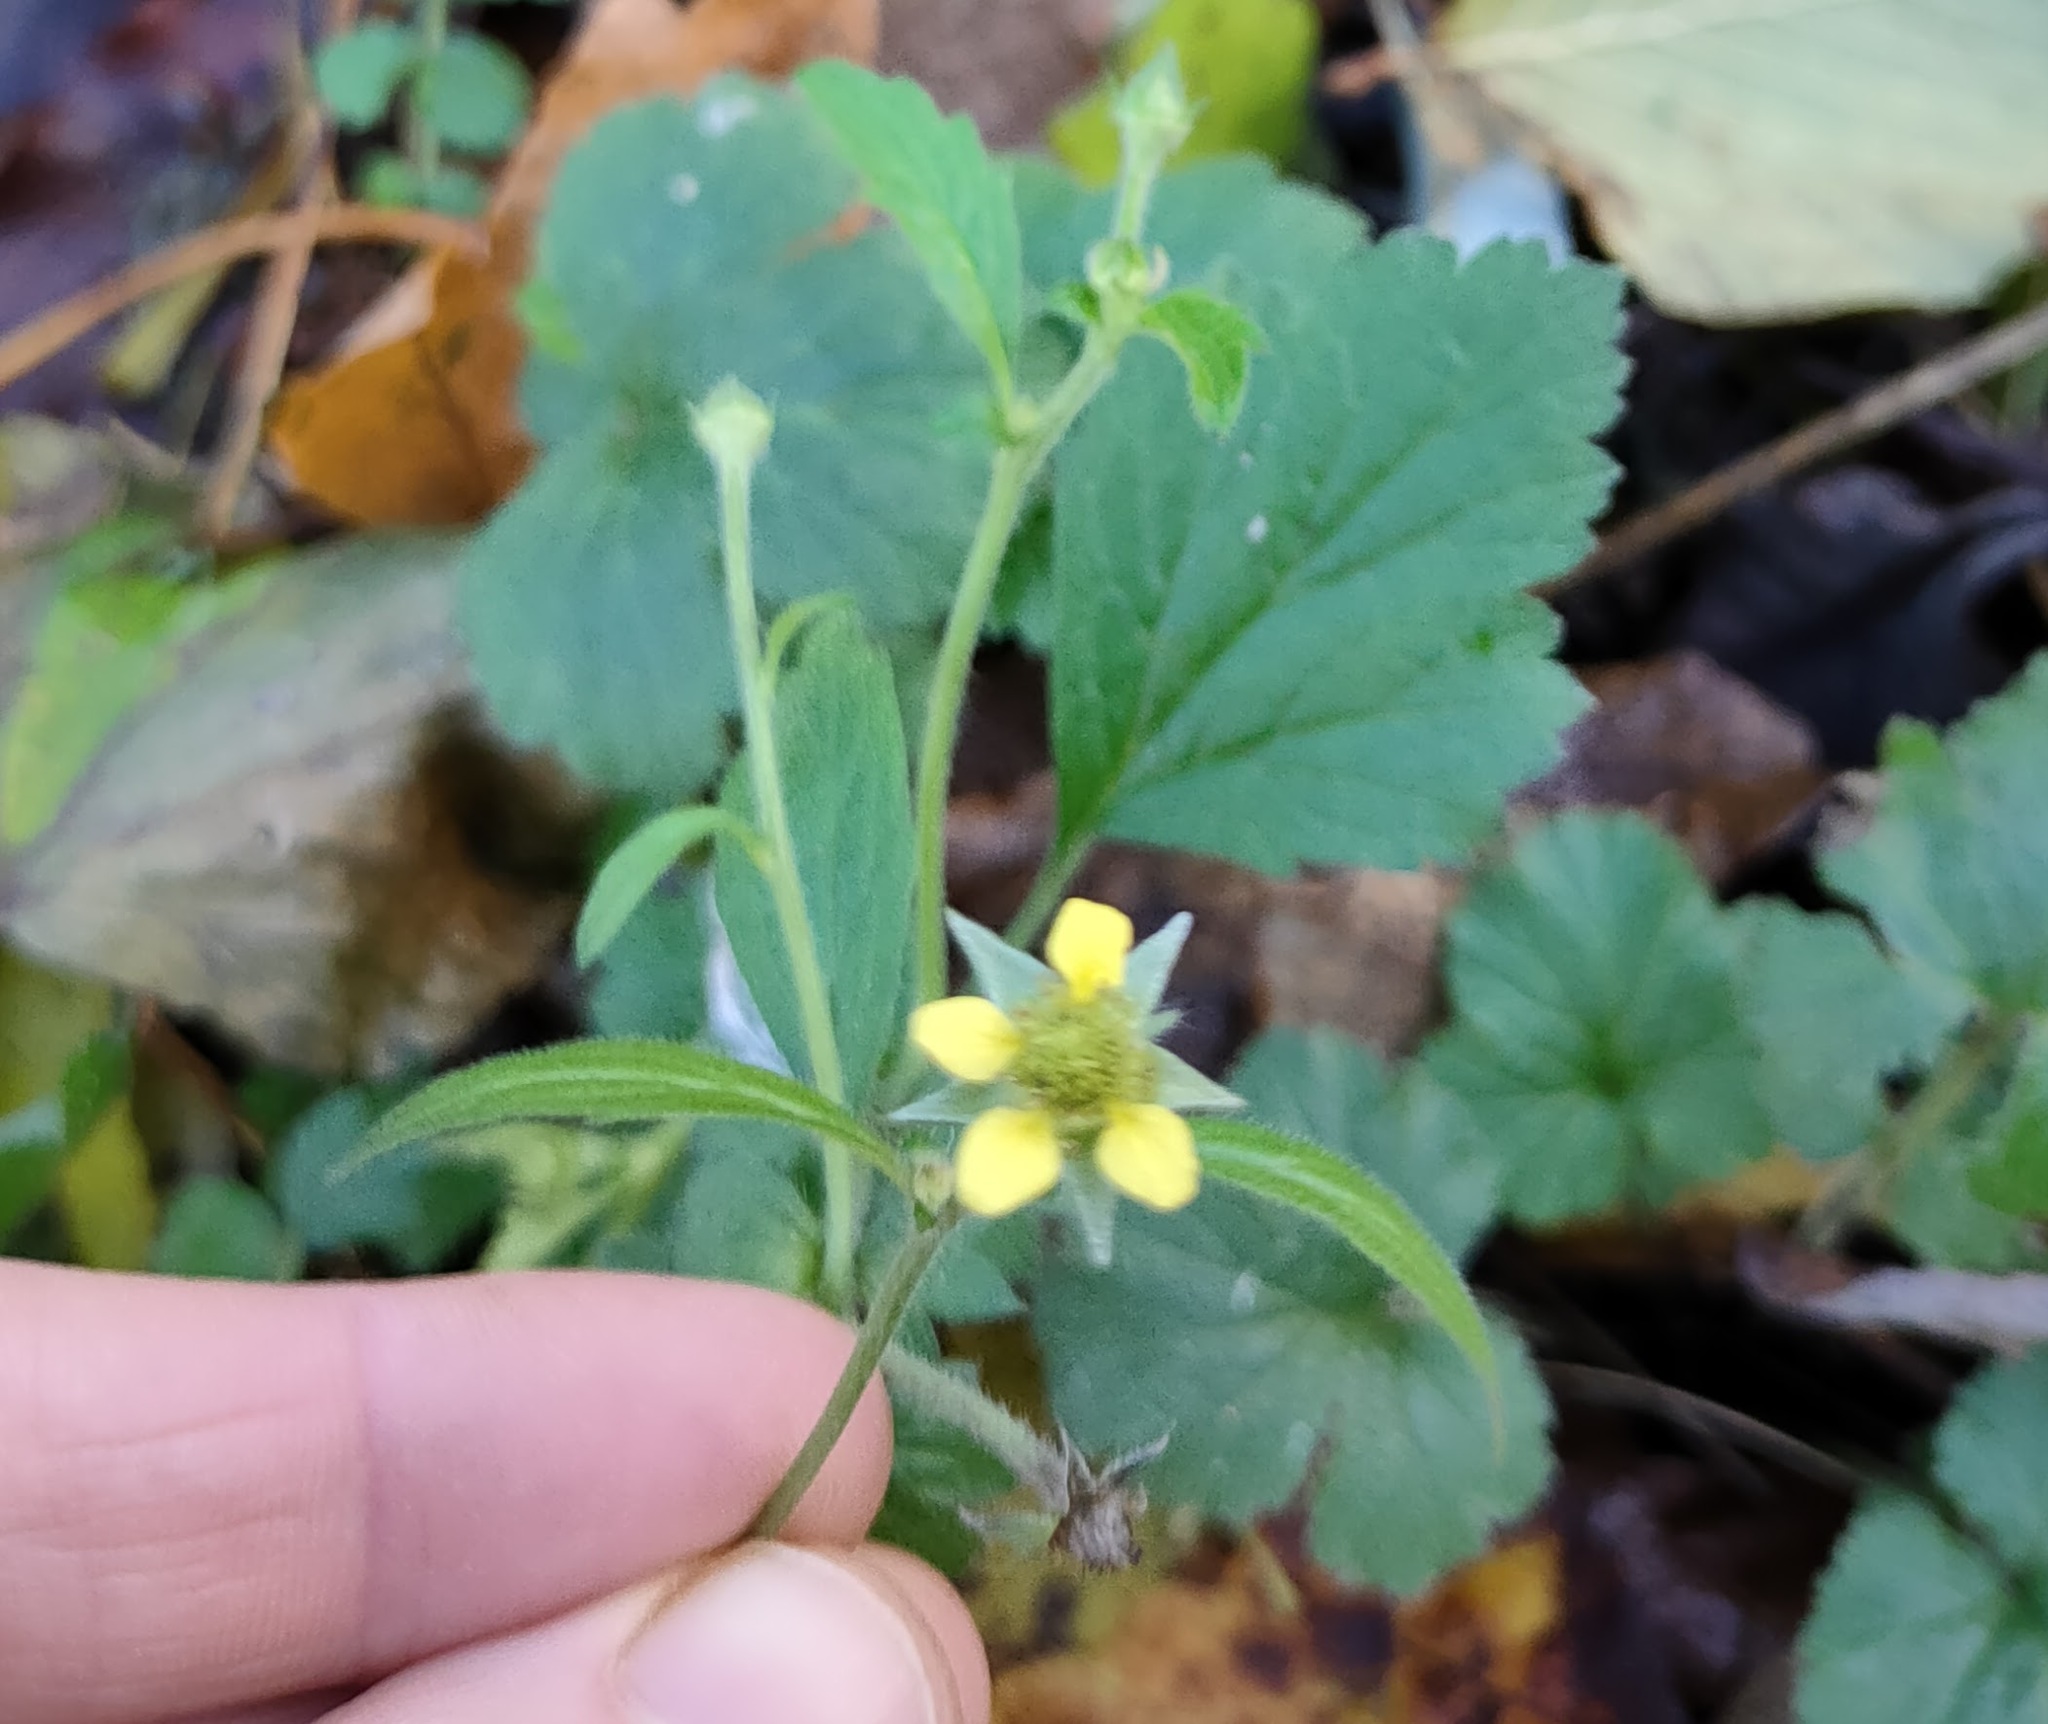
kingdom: Plantae
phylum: Tracheophyta
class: Magnoliopsida
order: Rosales
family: Rosaceae
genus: Geum
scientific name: Geum urbanum
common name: Wood avens
